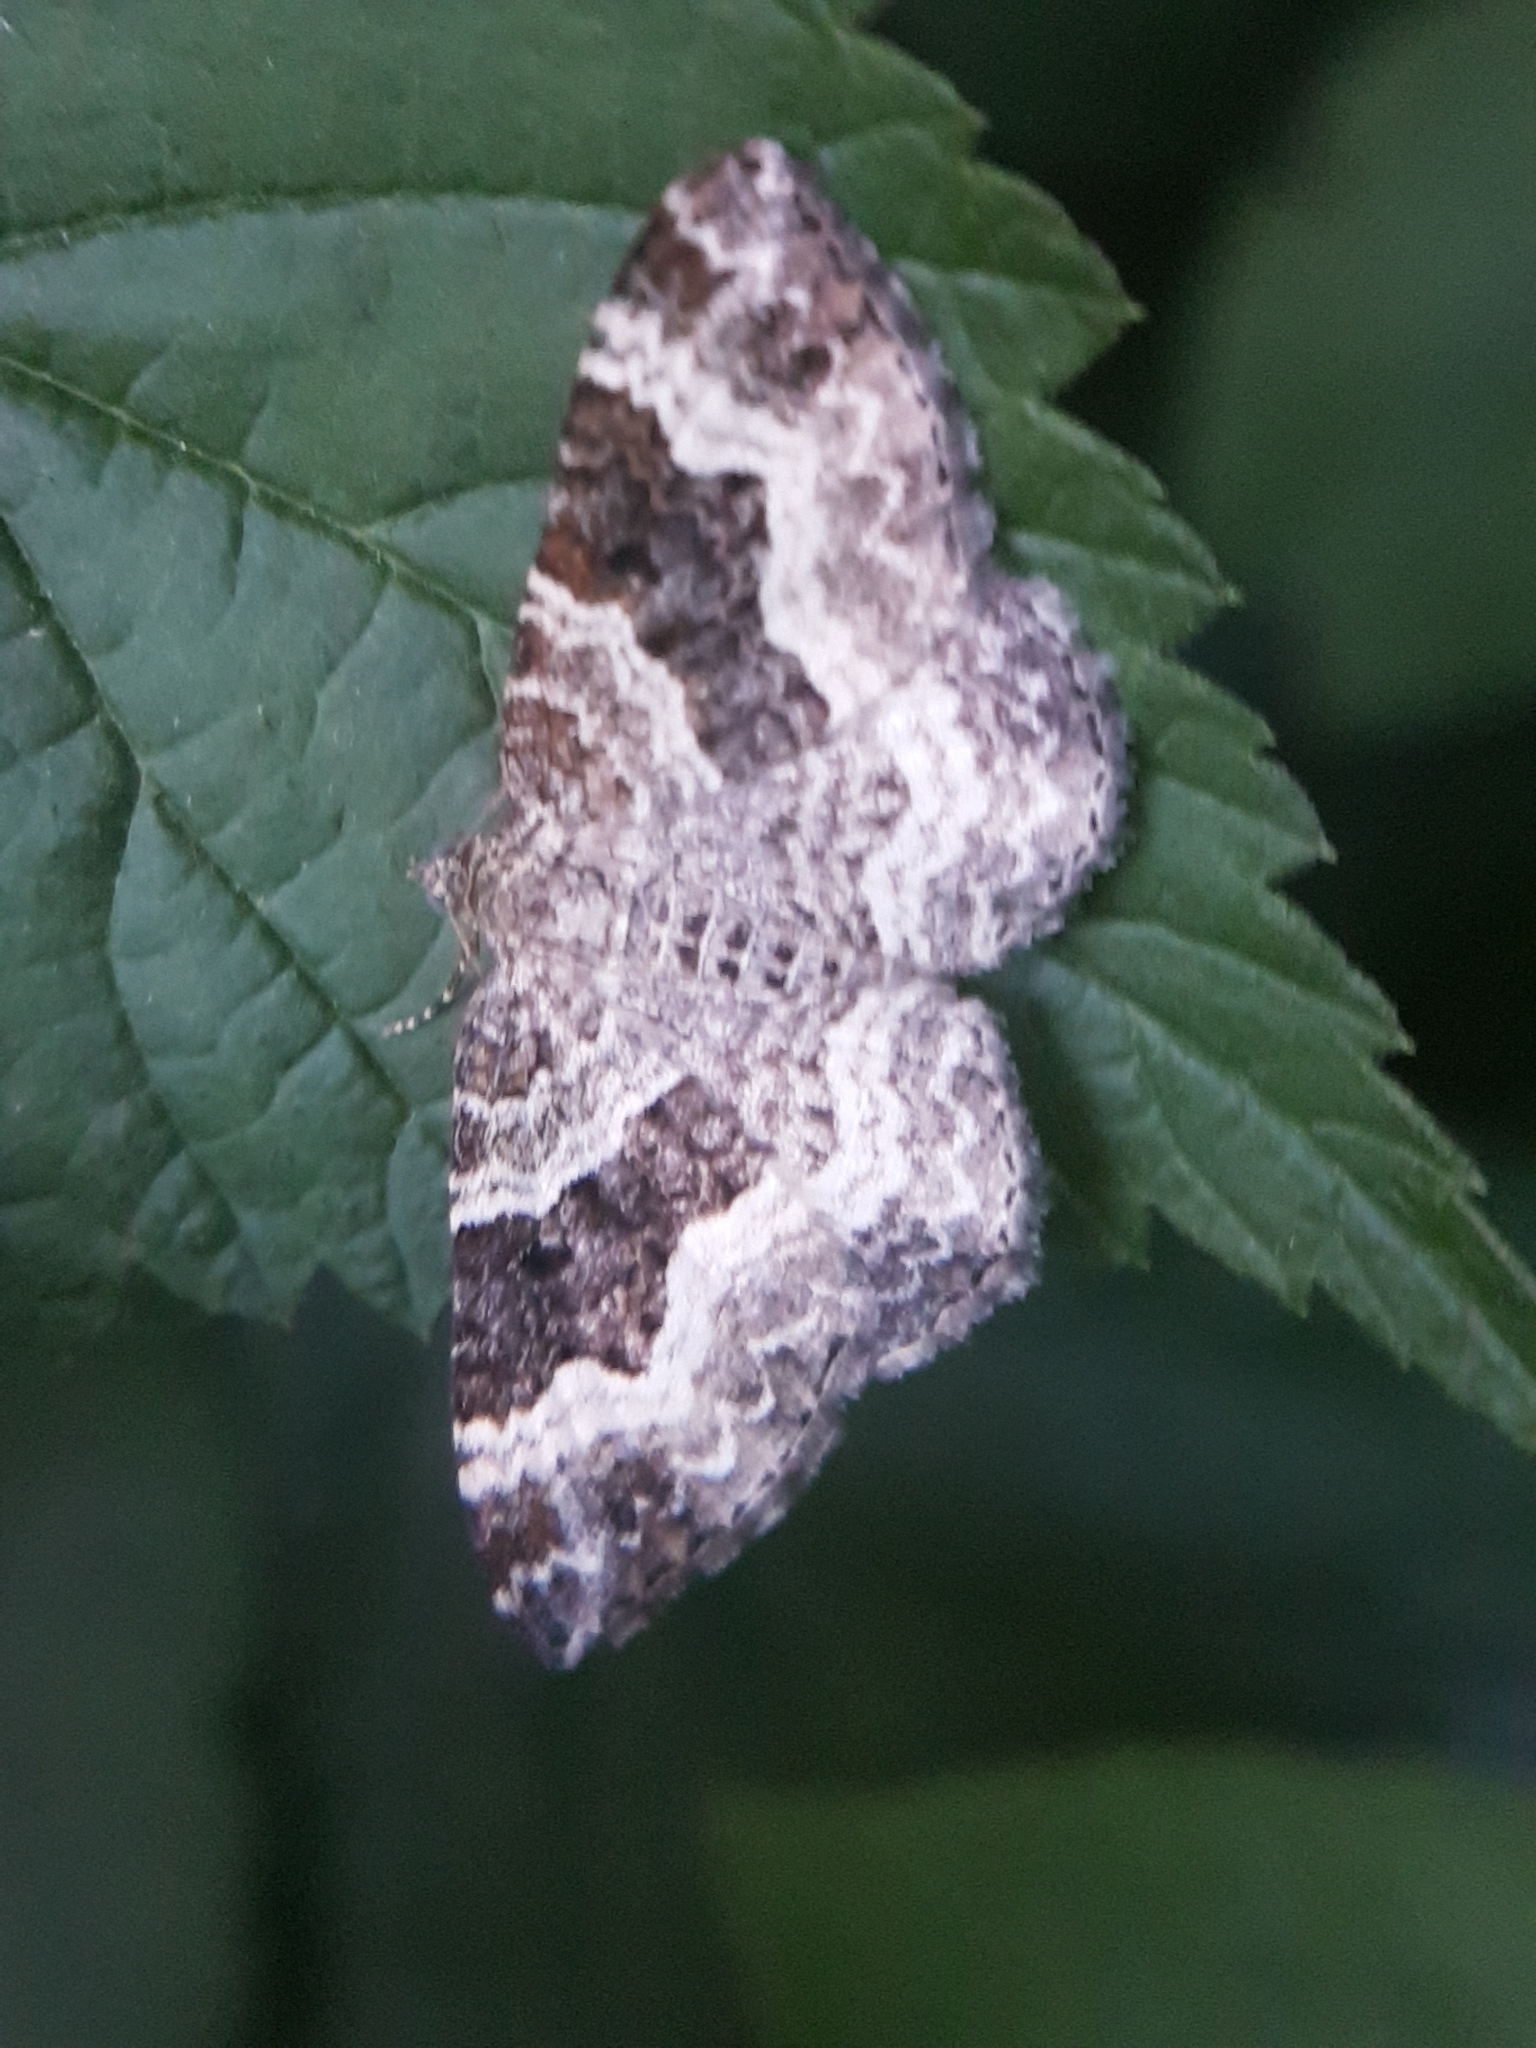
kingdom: Animalia
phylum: Arthropoda
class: Insecta
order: Lepidoptera
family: Geometridae
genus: Epirrhoe
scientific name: Epirrhoe alternata
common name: Common carpet
